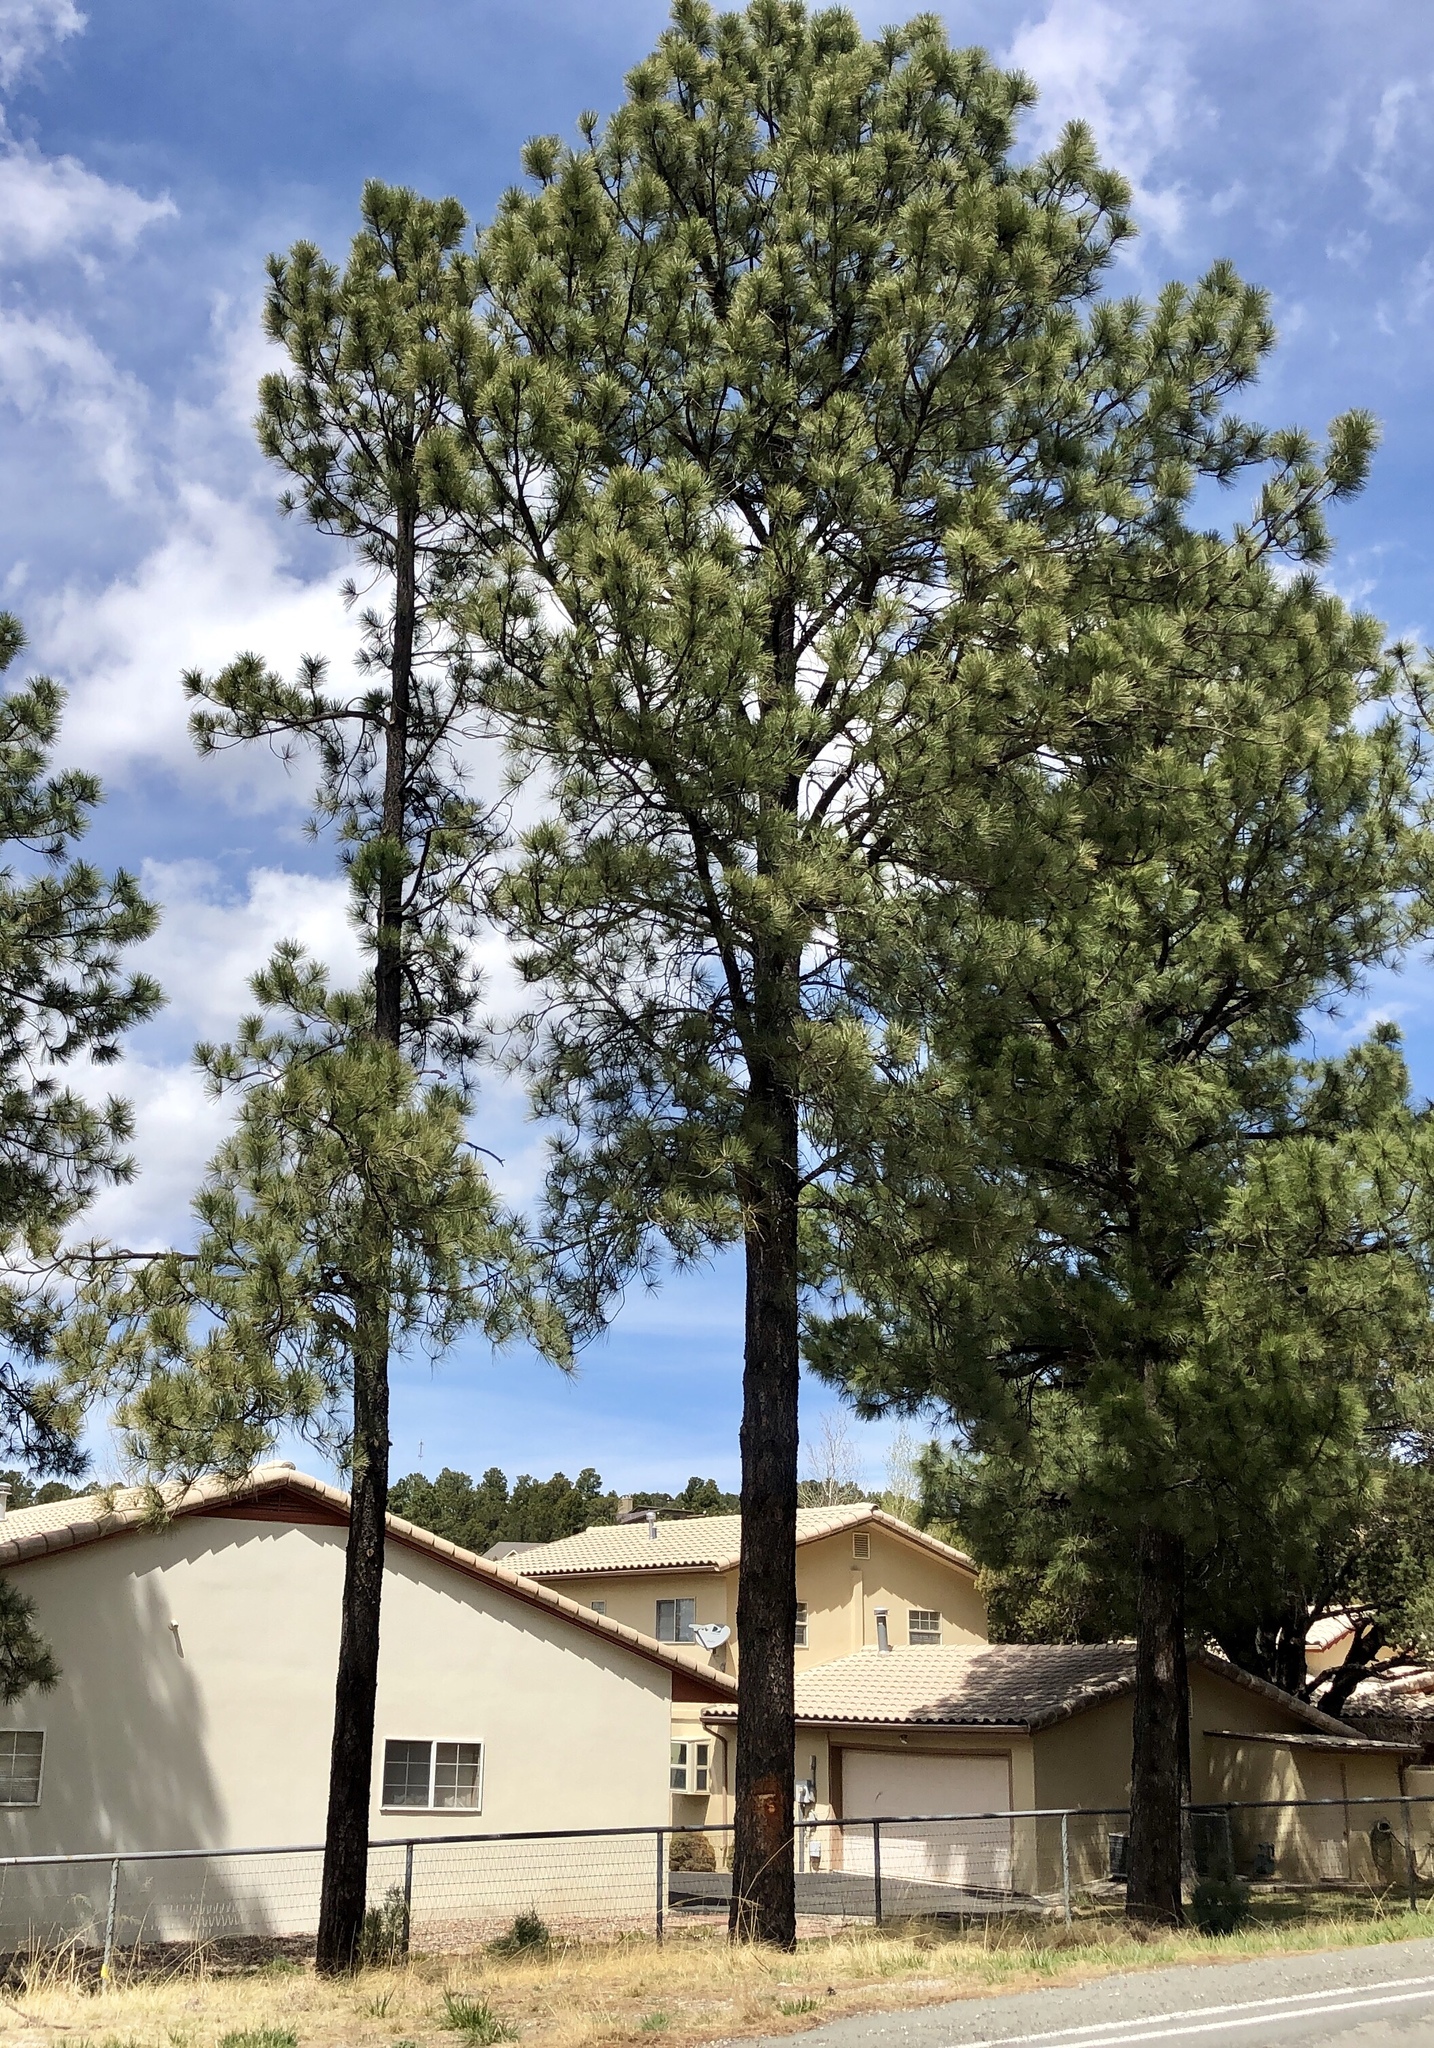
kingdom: Plantae
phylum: Tracheophyta
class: Pinopsida
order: Pinales
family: Pinaceae
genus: Pinus
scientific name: Pinus ponderosa
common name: Western yellow-pine
